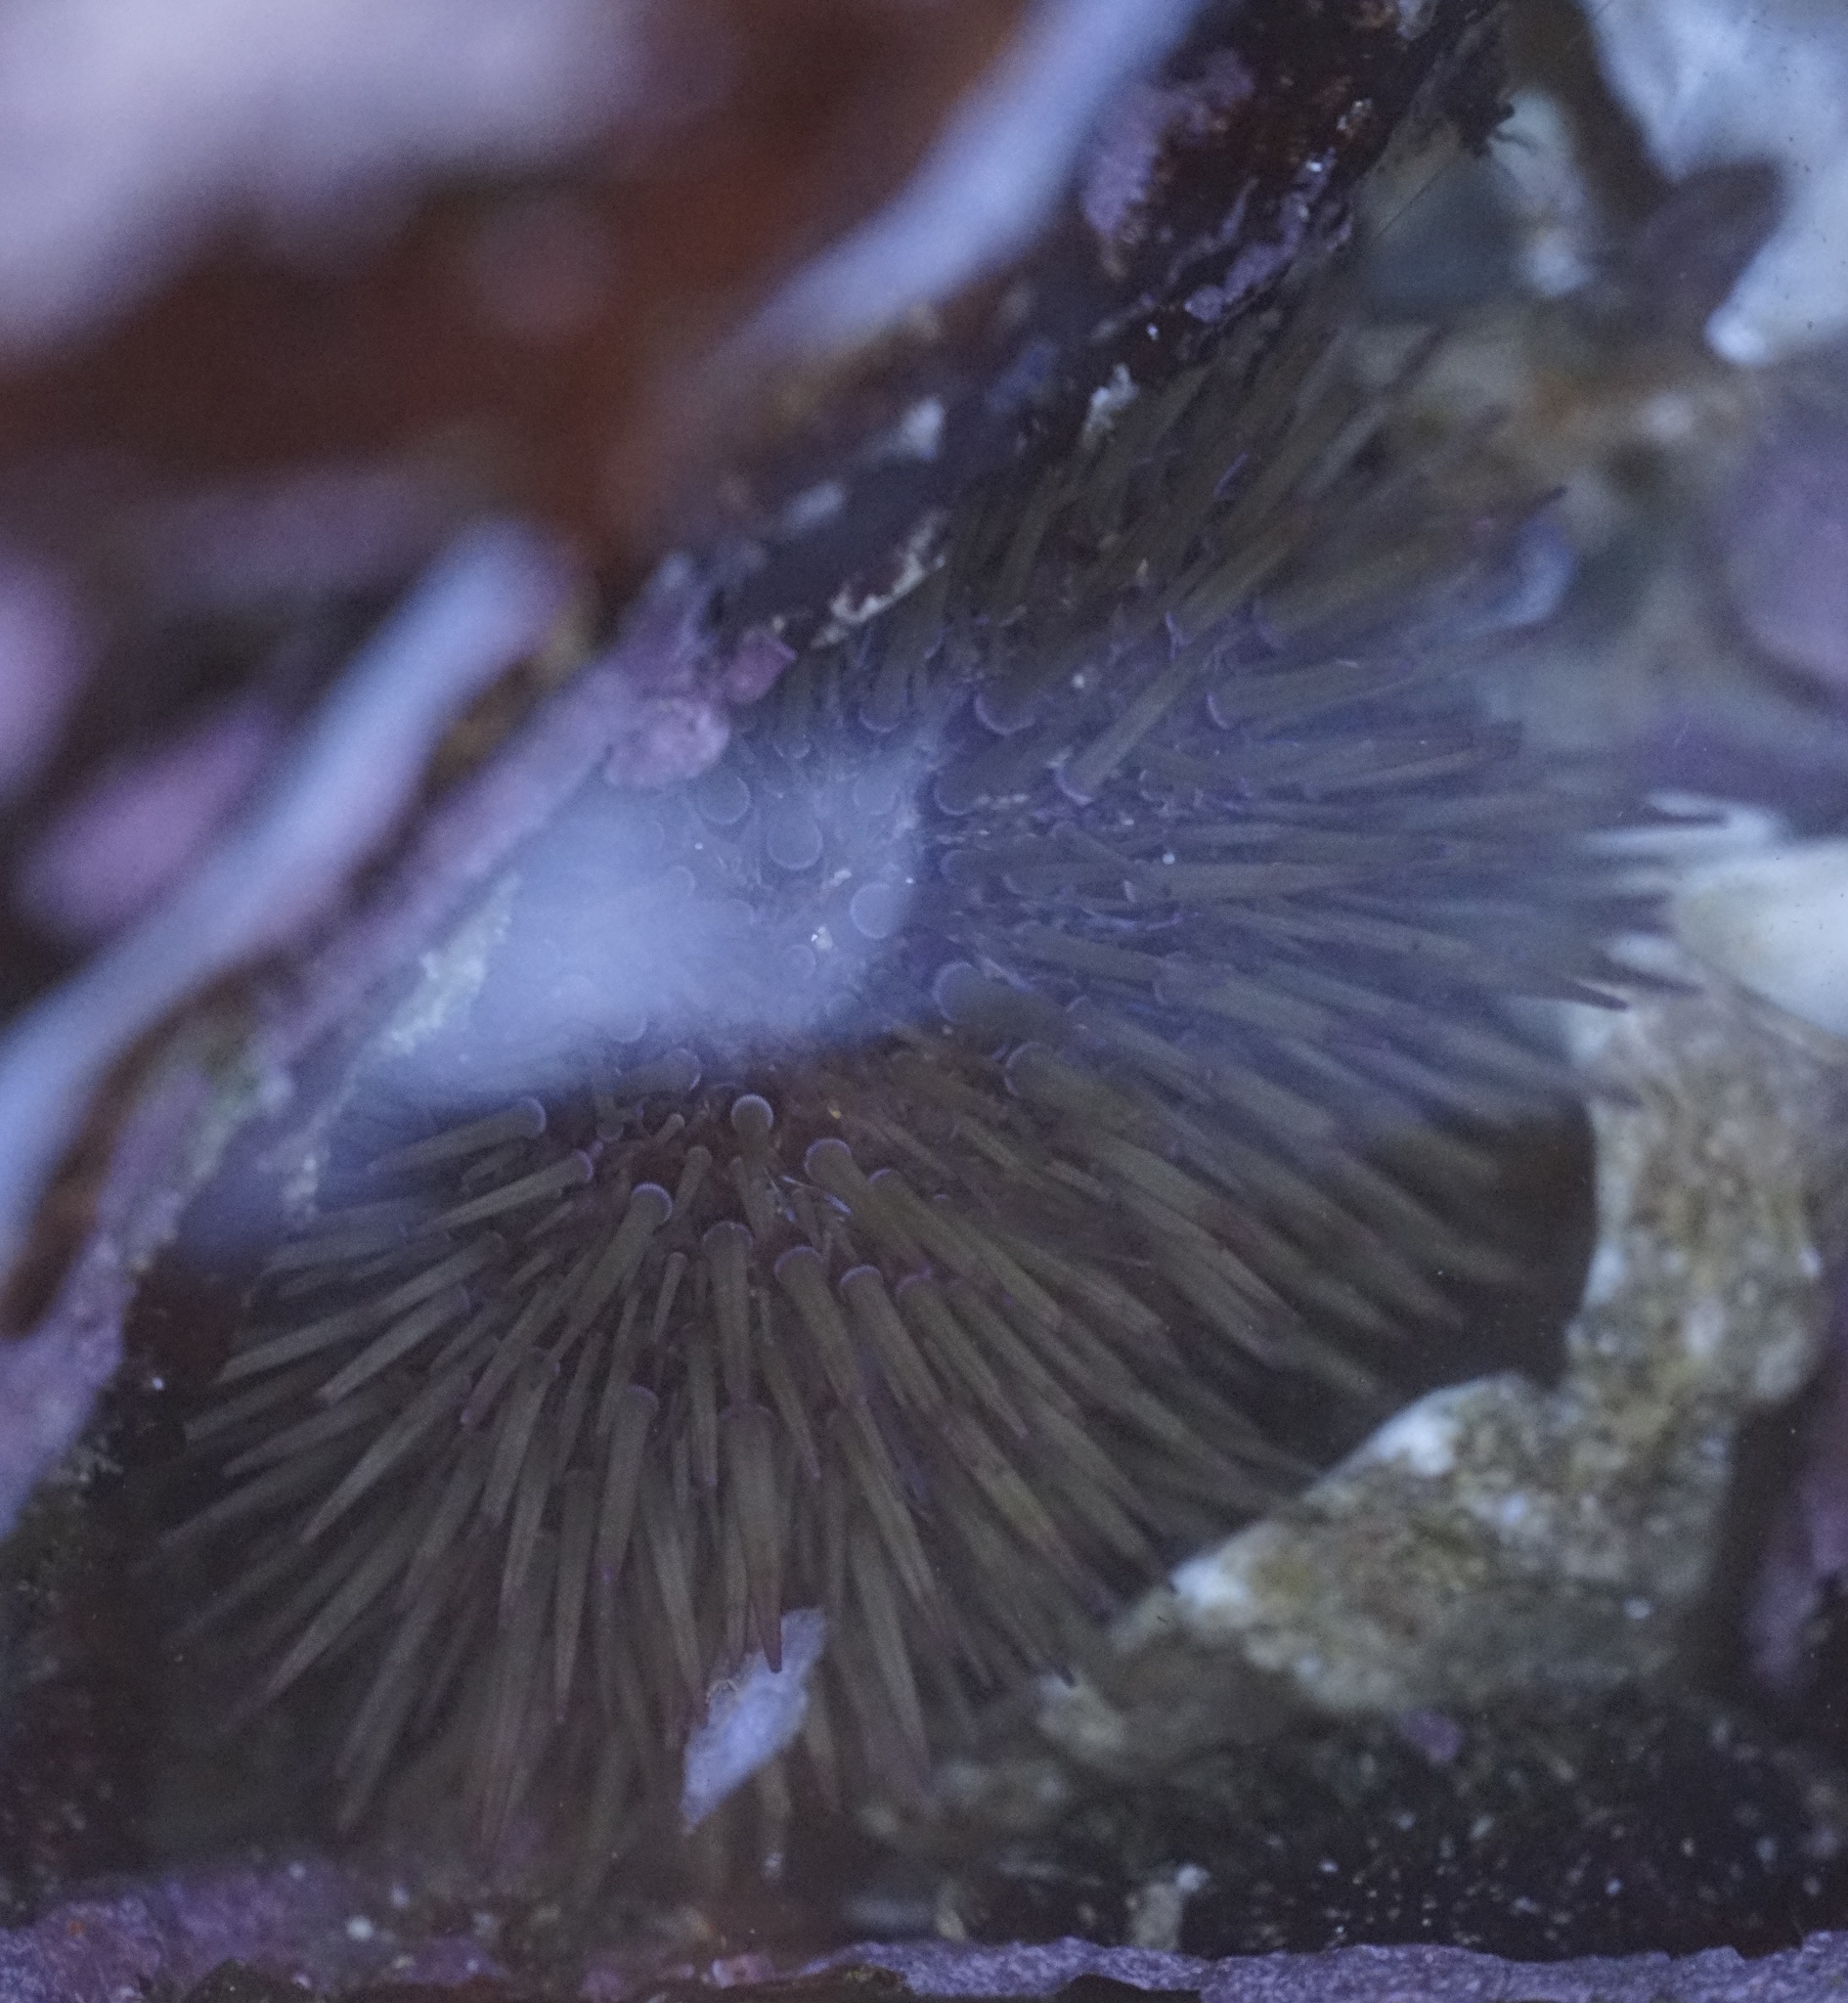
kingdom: Animalia
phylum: Echinodermata
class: Echinoidea
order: Camarodonta
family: Echinometridae
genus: Heliocidaris
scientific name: Heliocidaris erythrogramma
